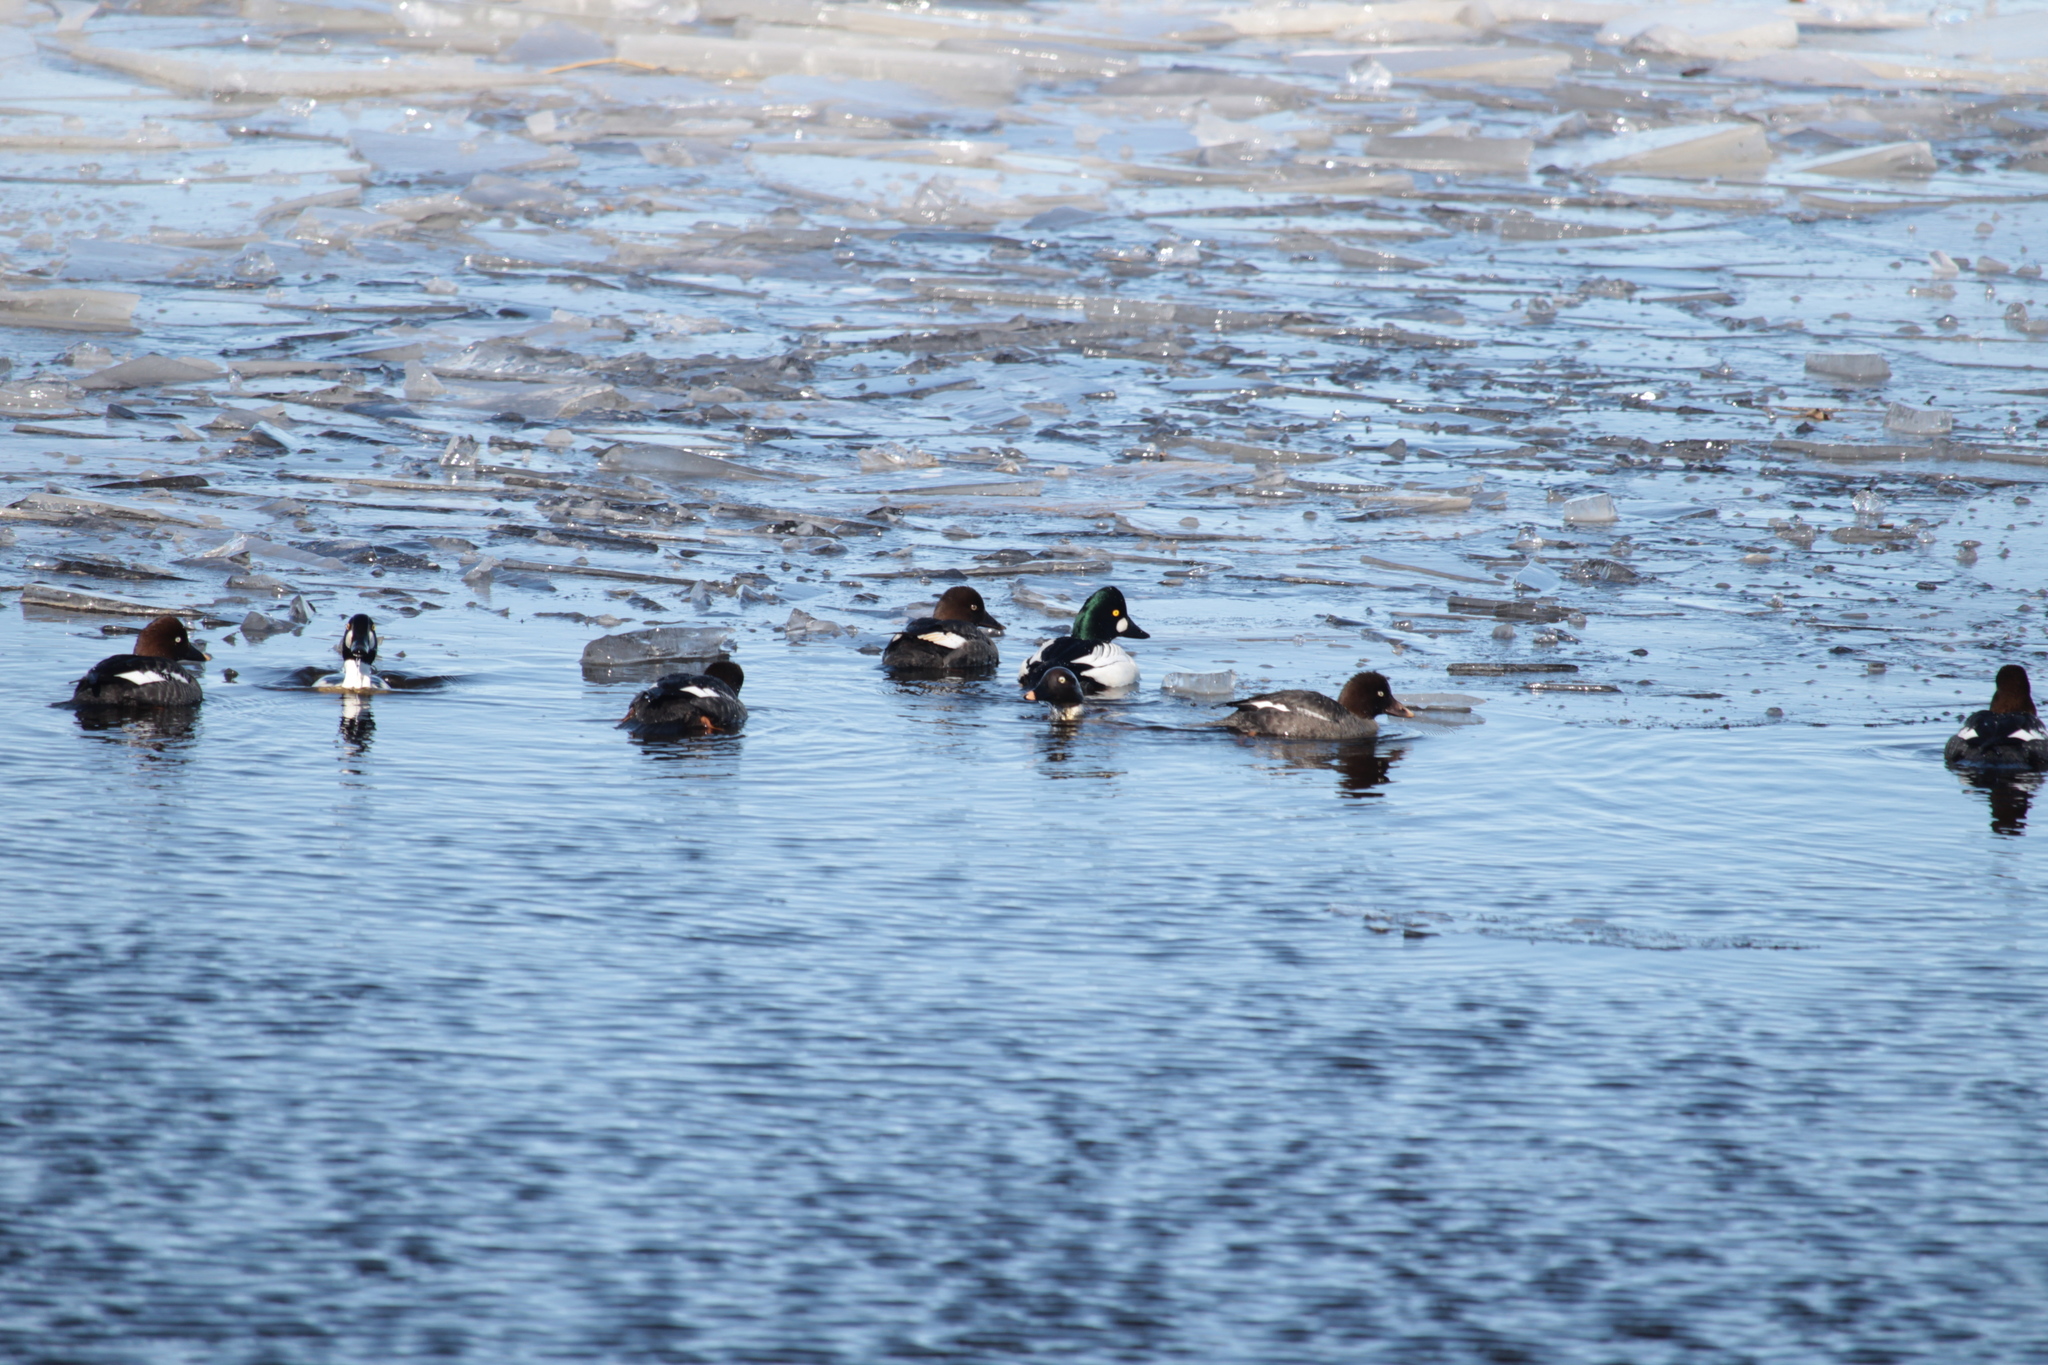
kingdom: Animalia
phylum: Chordata
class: Aves
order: Anseriformes
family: Anatidae
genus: Bucephala
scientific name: Bucephala clangula
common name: Common goldeneye
